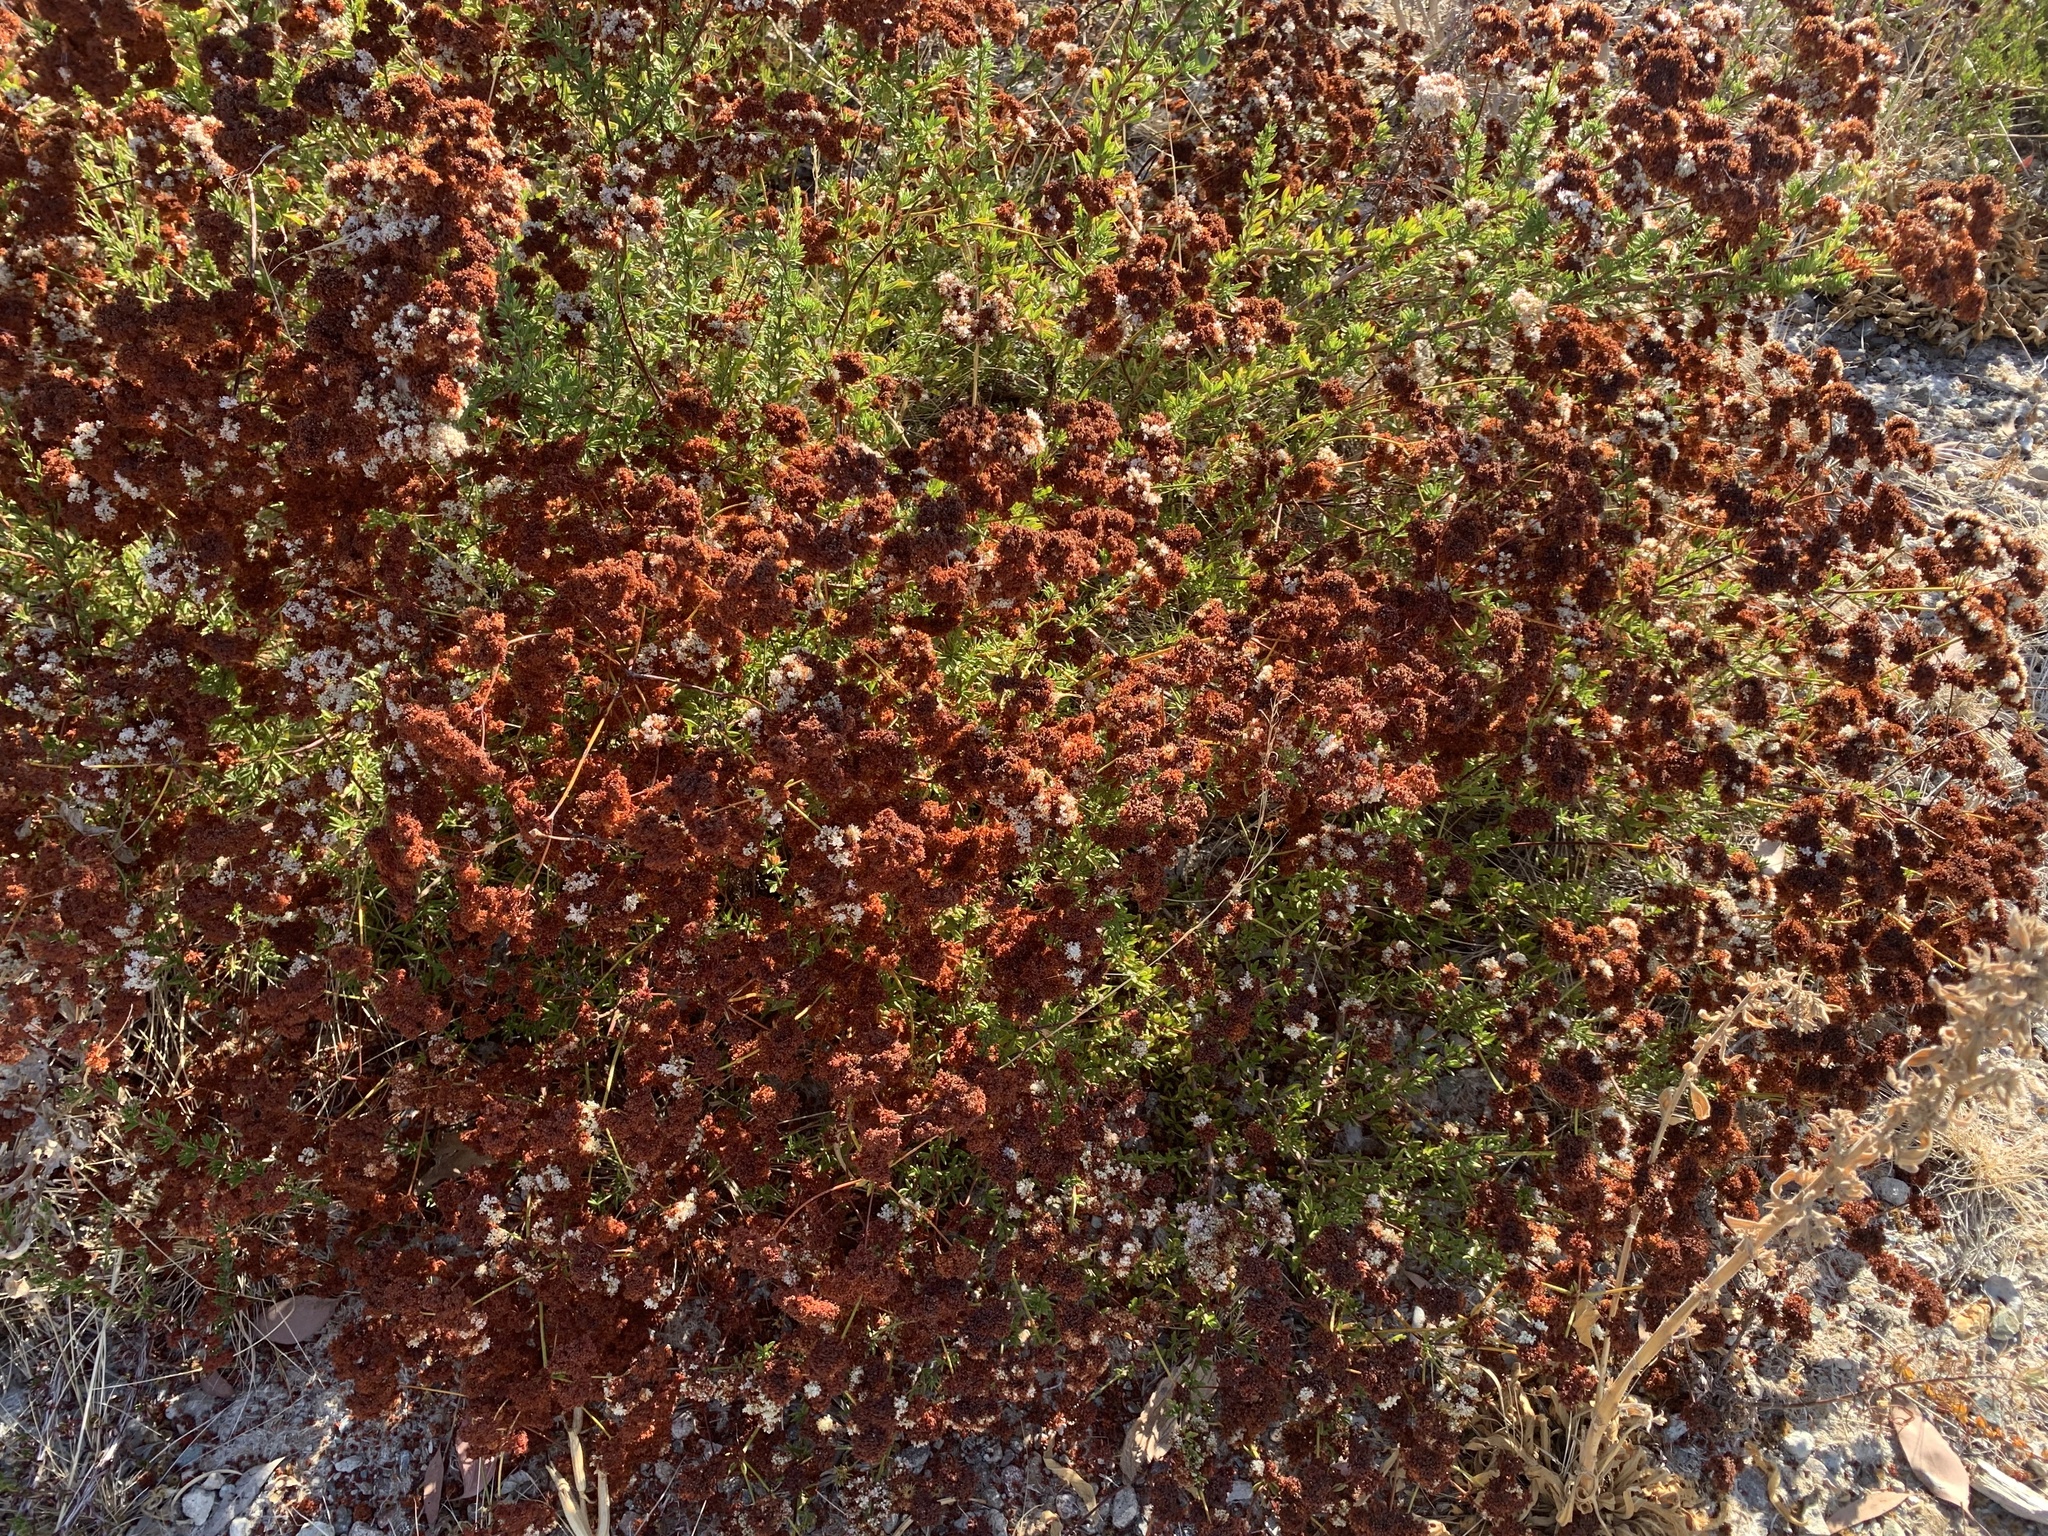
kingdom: Plantae
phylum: Tracheophyta
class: Magnoliopsida
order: Caryophyllales
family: Polygonaceae
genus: Eriogonum
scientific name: Eriogonum fasciculatum
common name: California wild buckwheat
